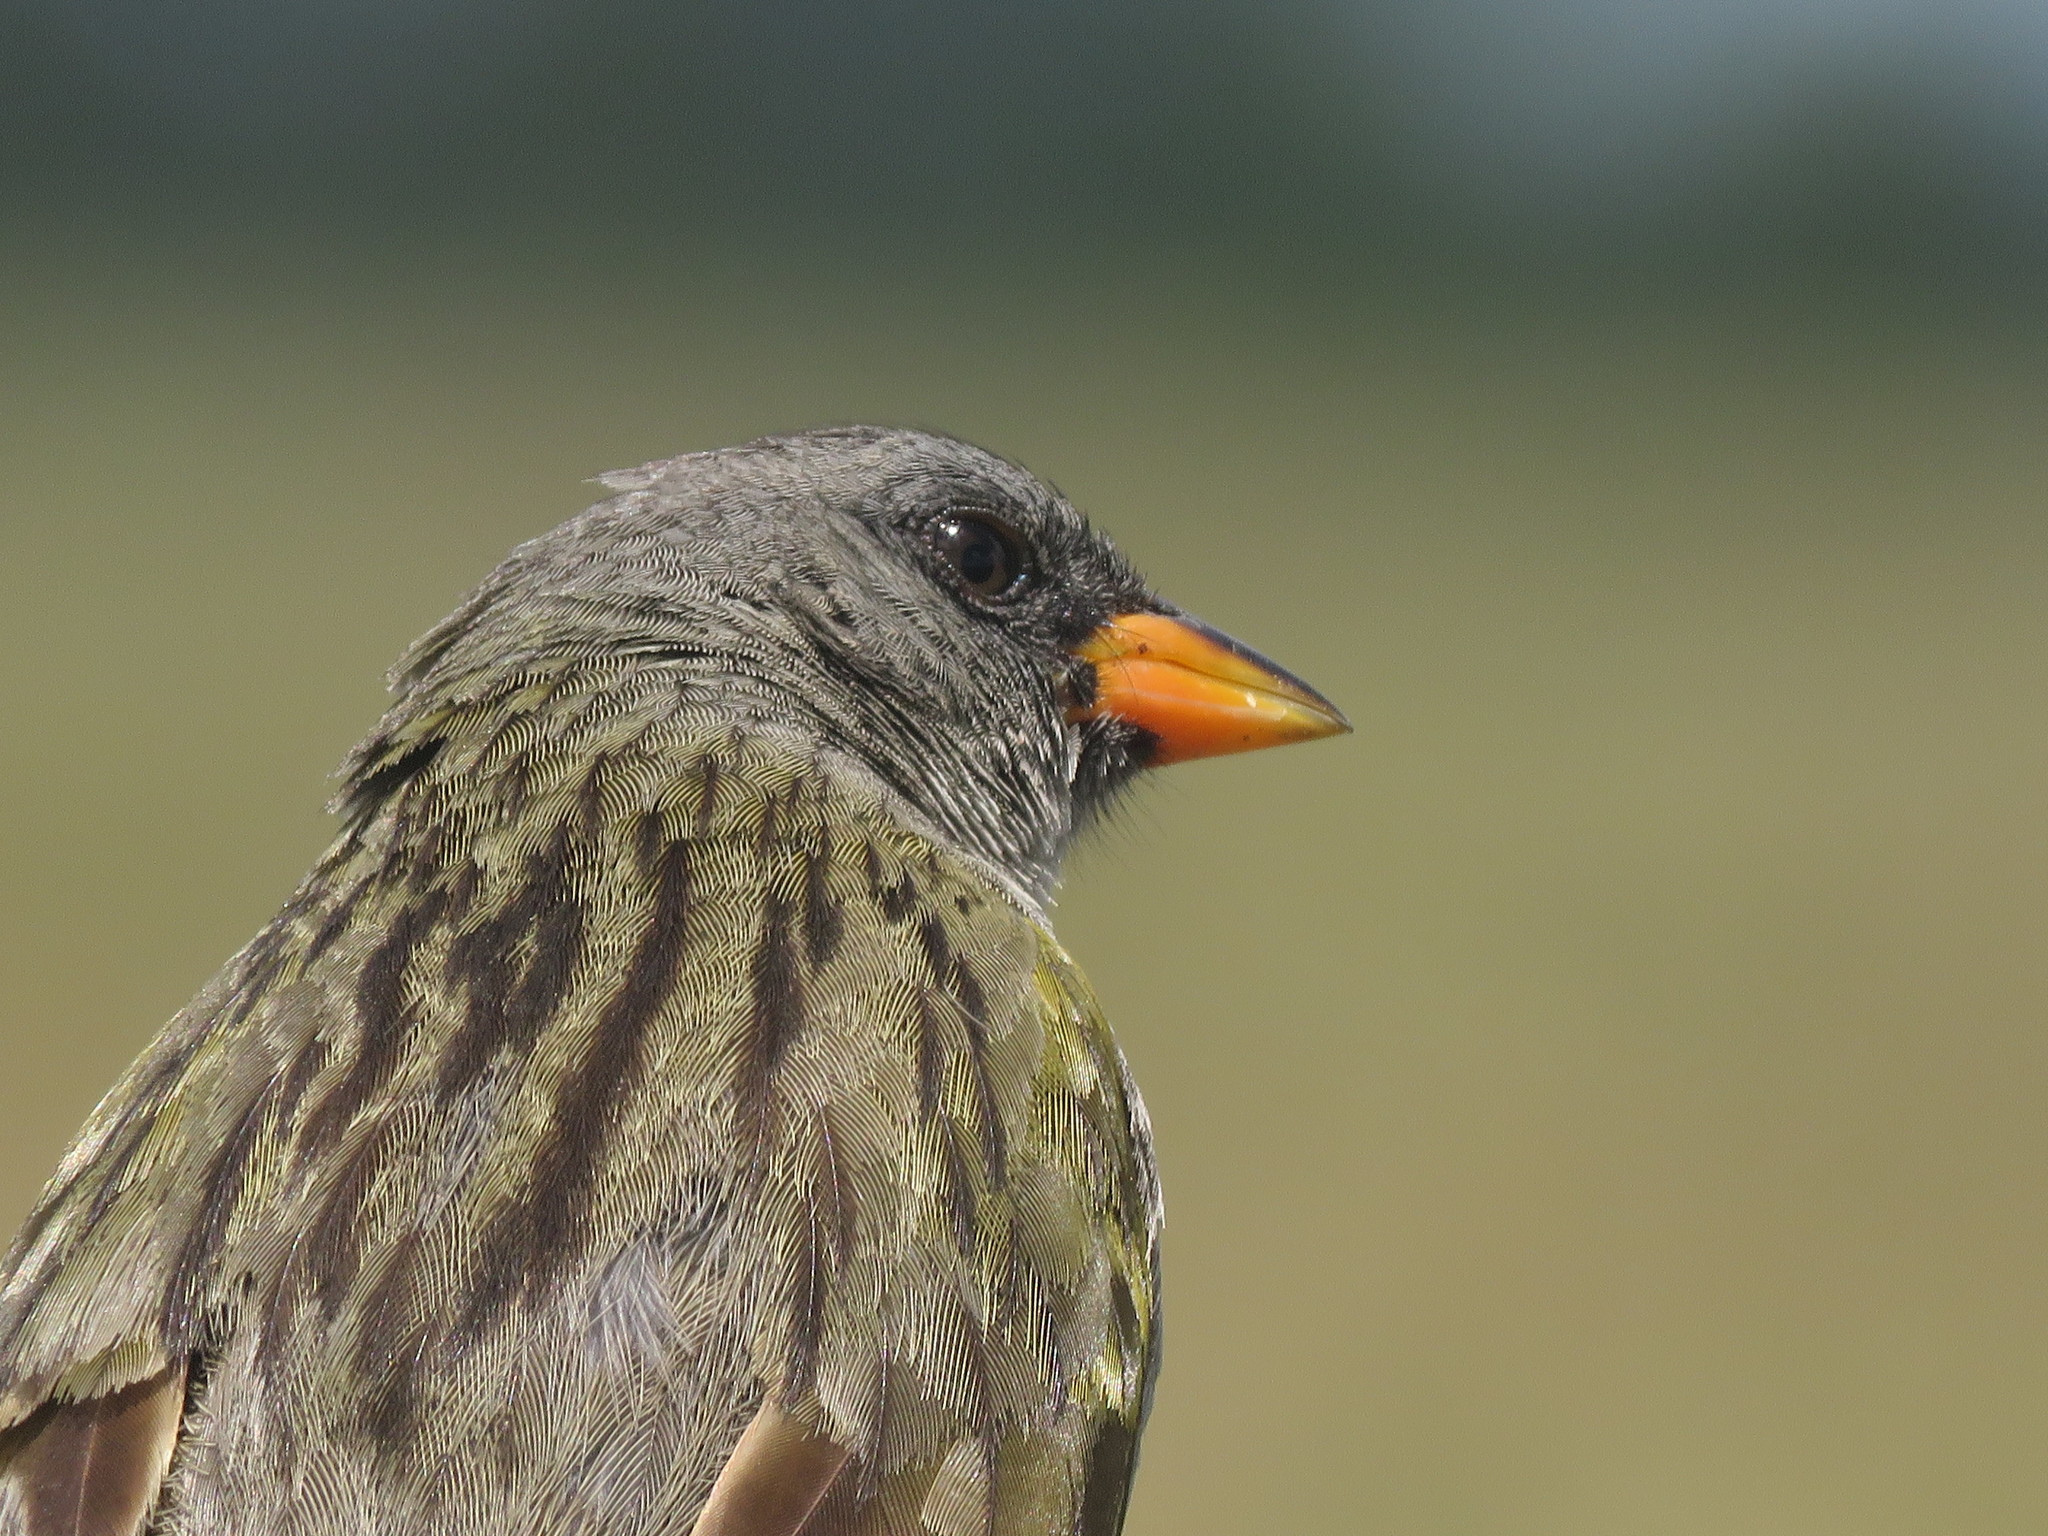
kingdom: Animalia
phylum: Chordata
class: Aves
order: Passeriformes
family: Thraupidae
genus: Embernagra
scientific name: Embernagra platensis
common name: Pampa finch
